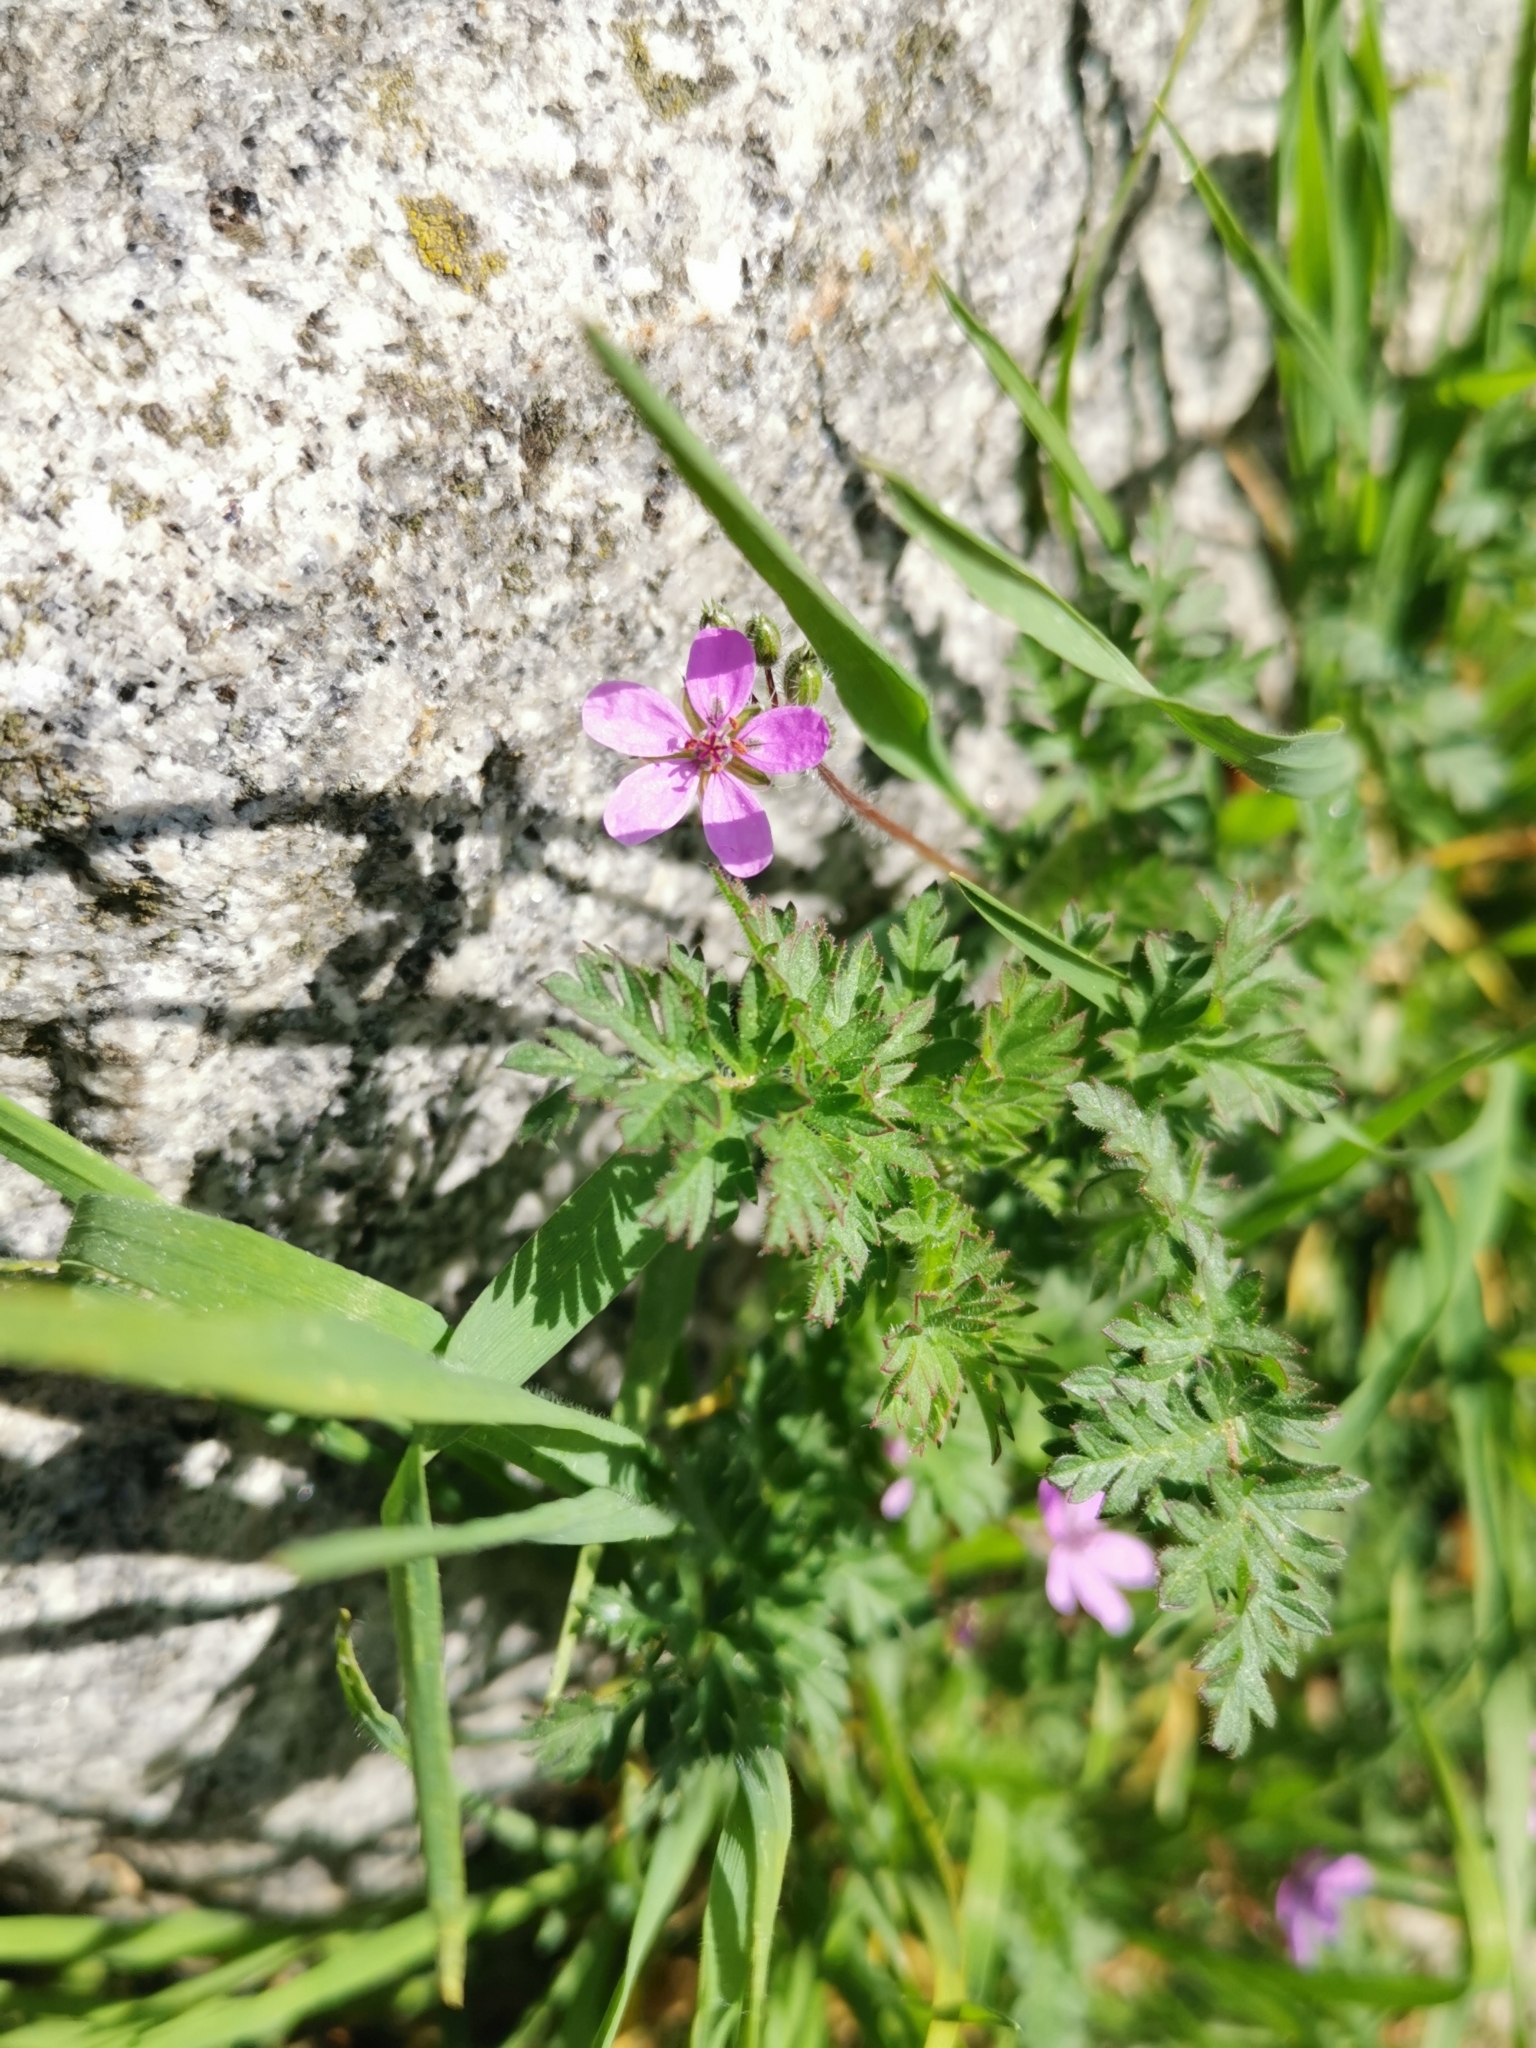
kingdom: Plantae
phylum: Tracheophyta
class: Magnoliopsida
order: Geraniales
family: Geraniaceae
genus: Erodium
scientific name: Erodium cicutarium
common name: Common stork's-bill
